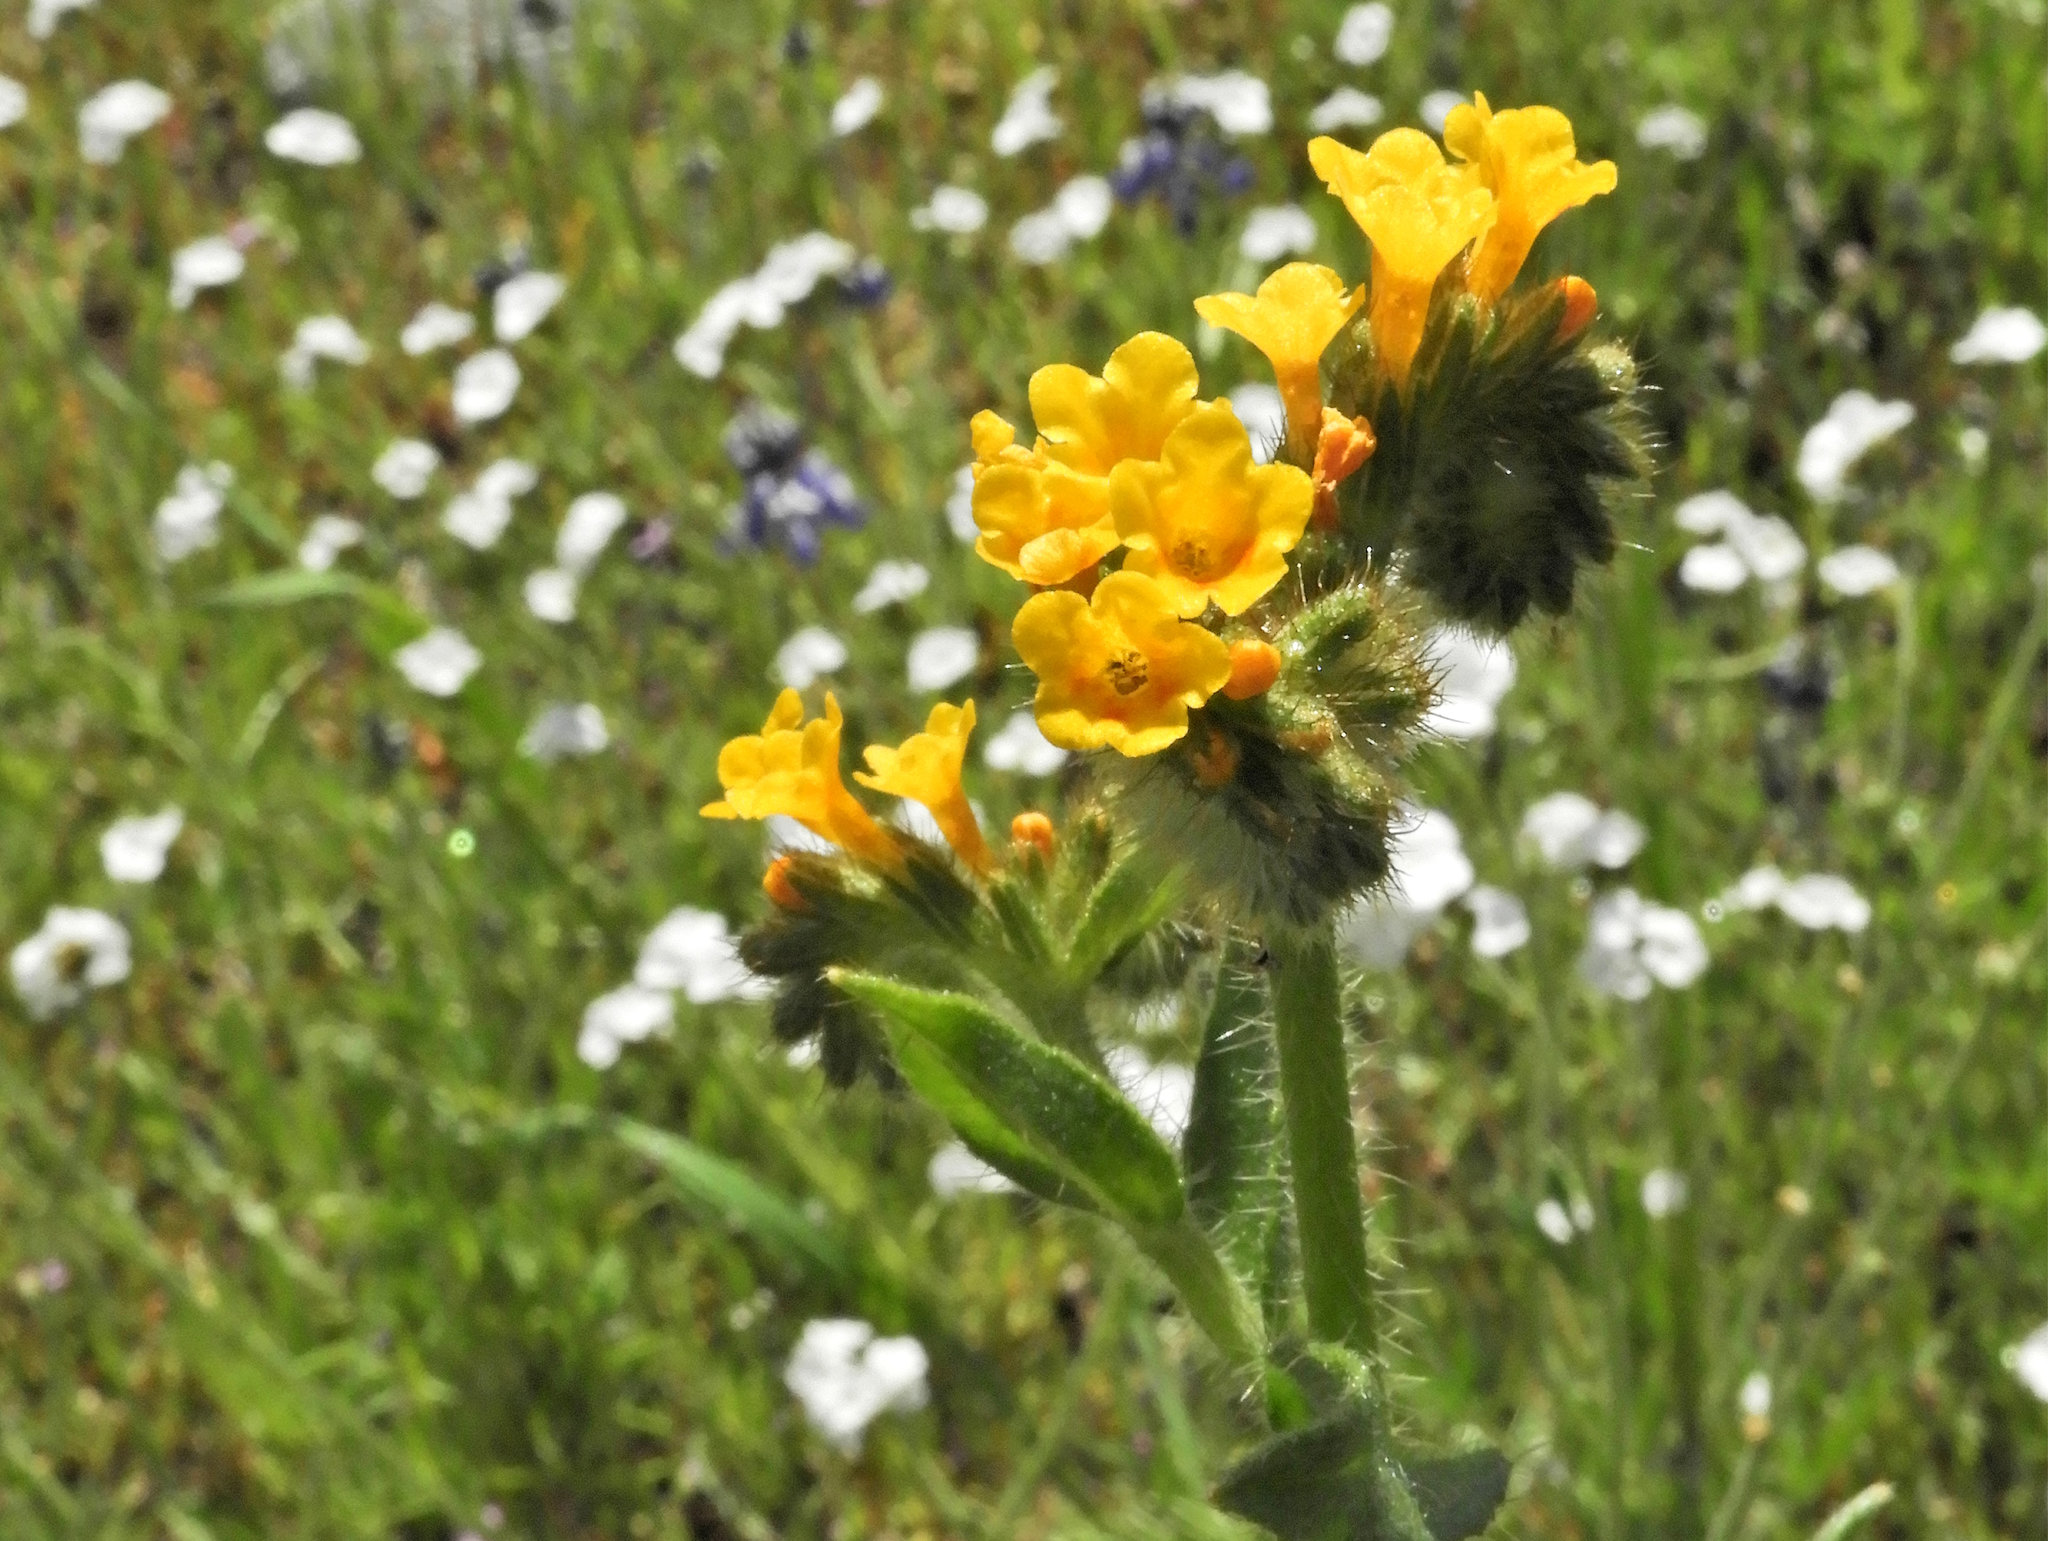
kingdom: Plantae
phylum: Tracheophyta
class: Magnoliopsida
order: Boraginales
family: Boraginaceae
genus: Amsinckia
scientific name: Amsinckia menziesii
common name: Menzies' fiddleneck
